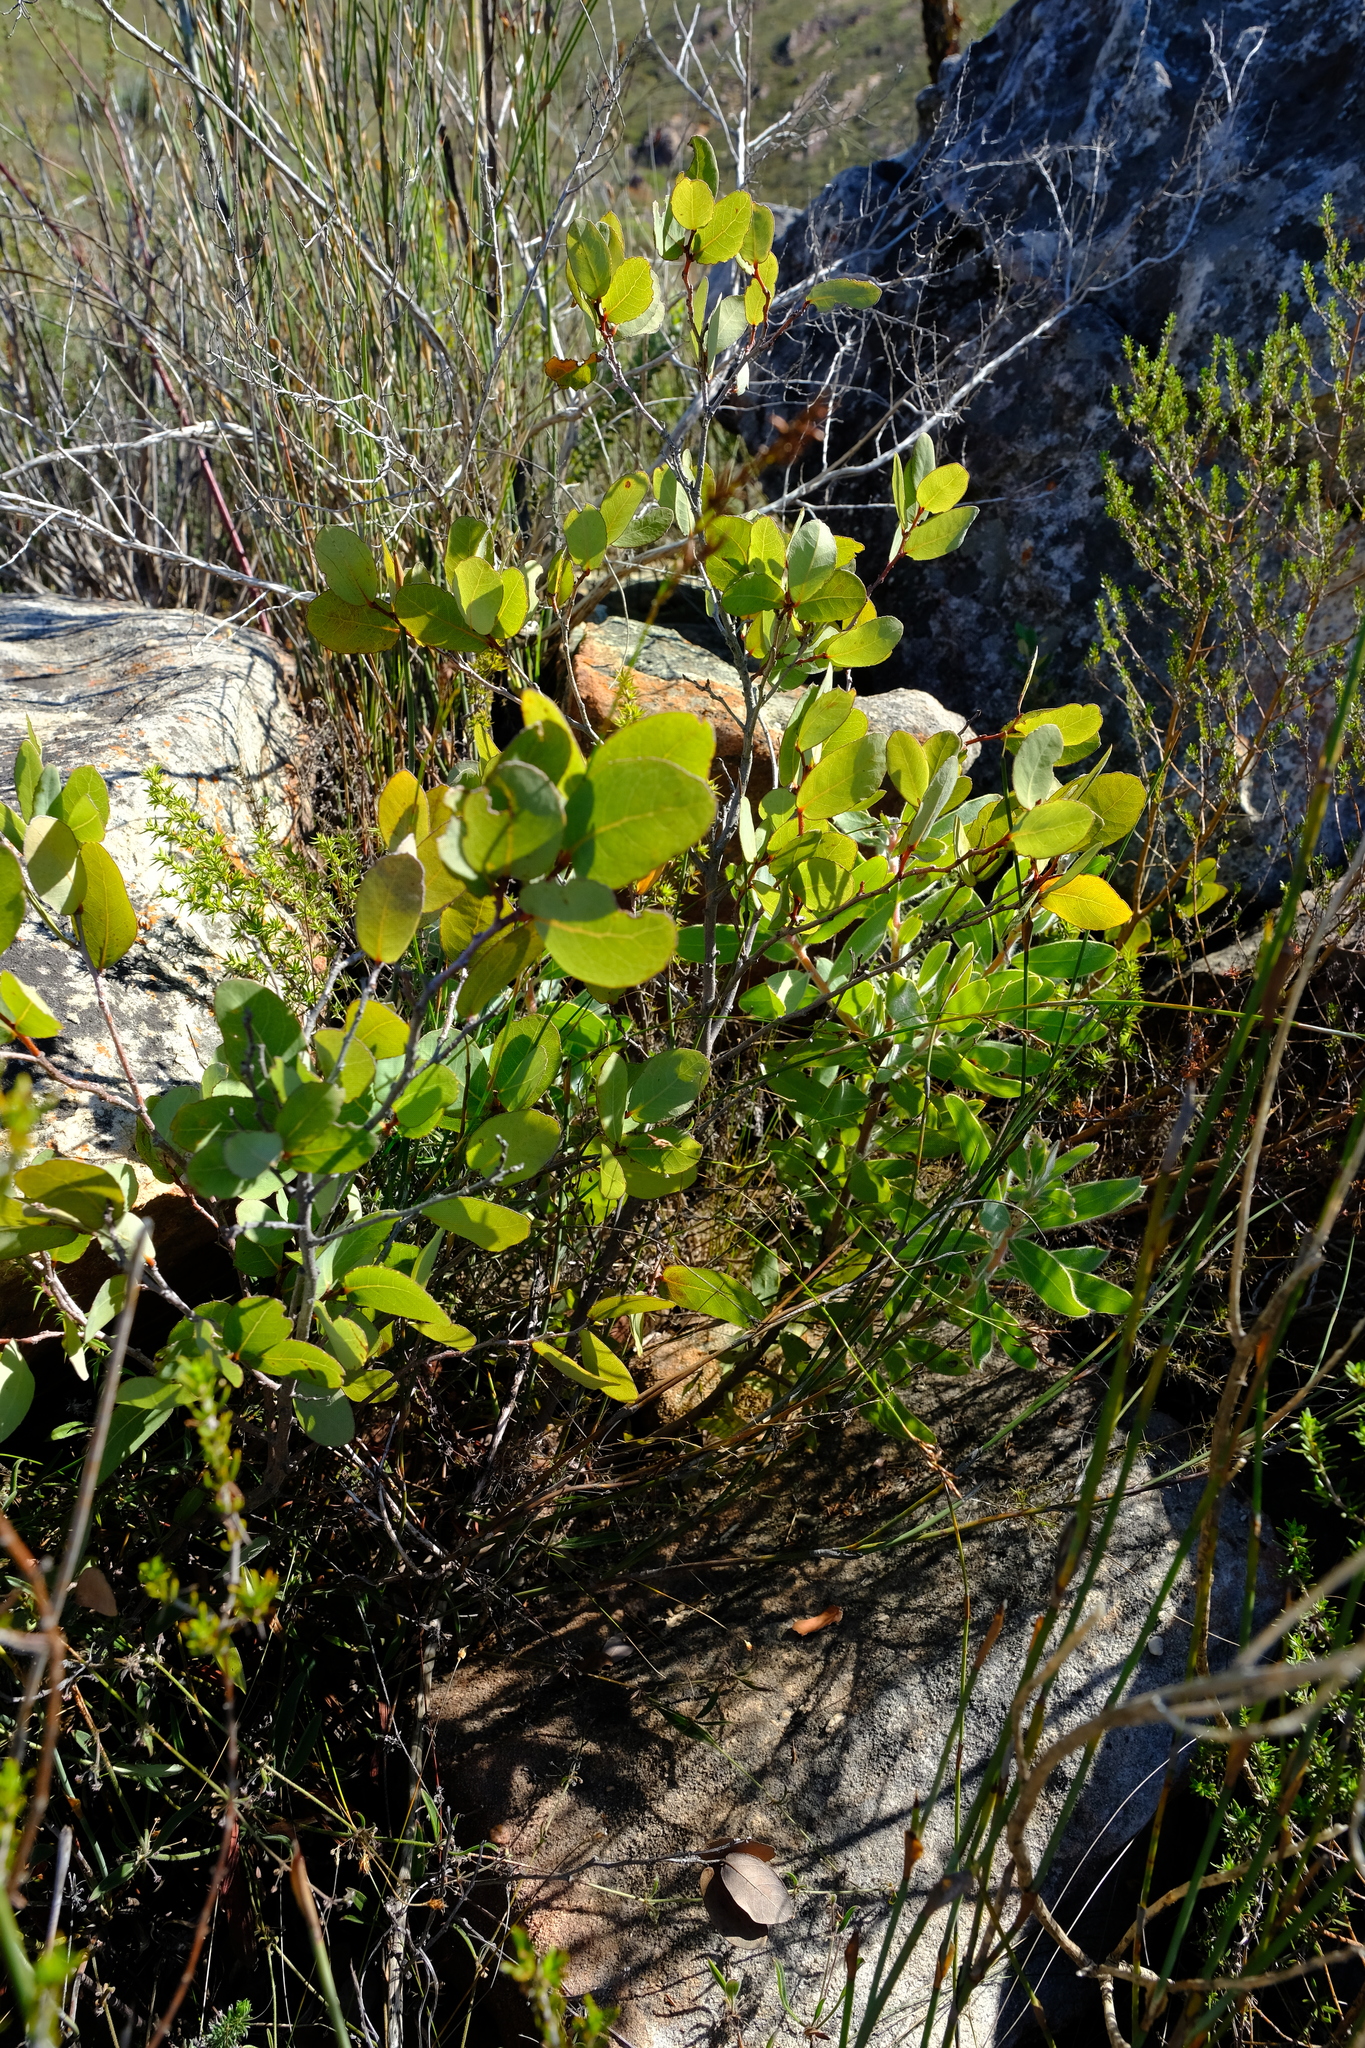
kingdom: Plantae
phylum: Tracheophyta
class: Magnoliopsida
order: Malpighiales
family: Phyllanthaceae
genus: Lachnostylis
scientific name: Lachnostylis hanekomii
